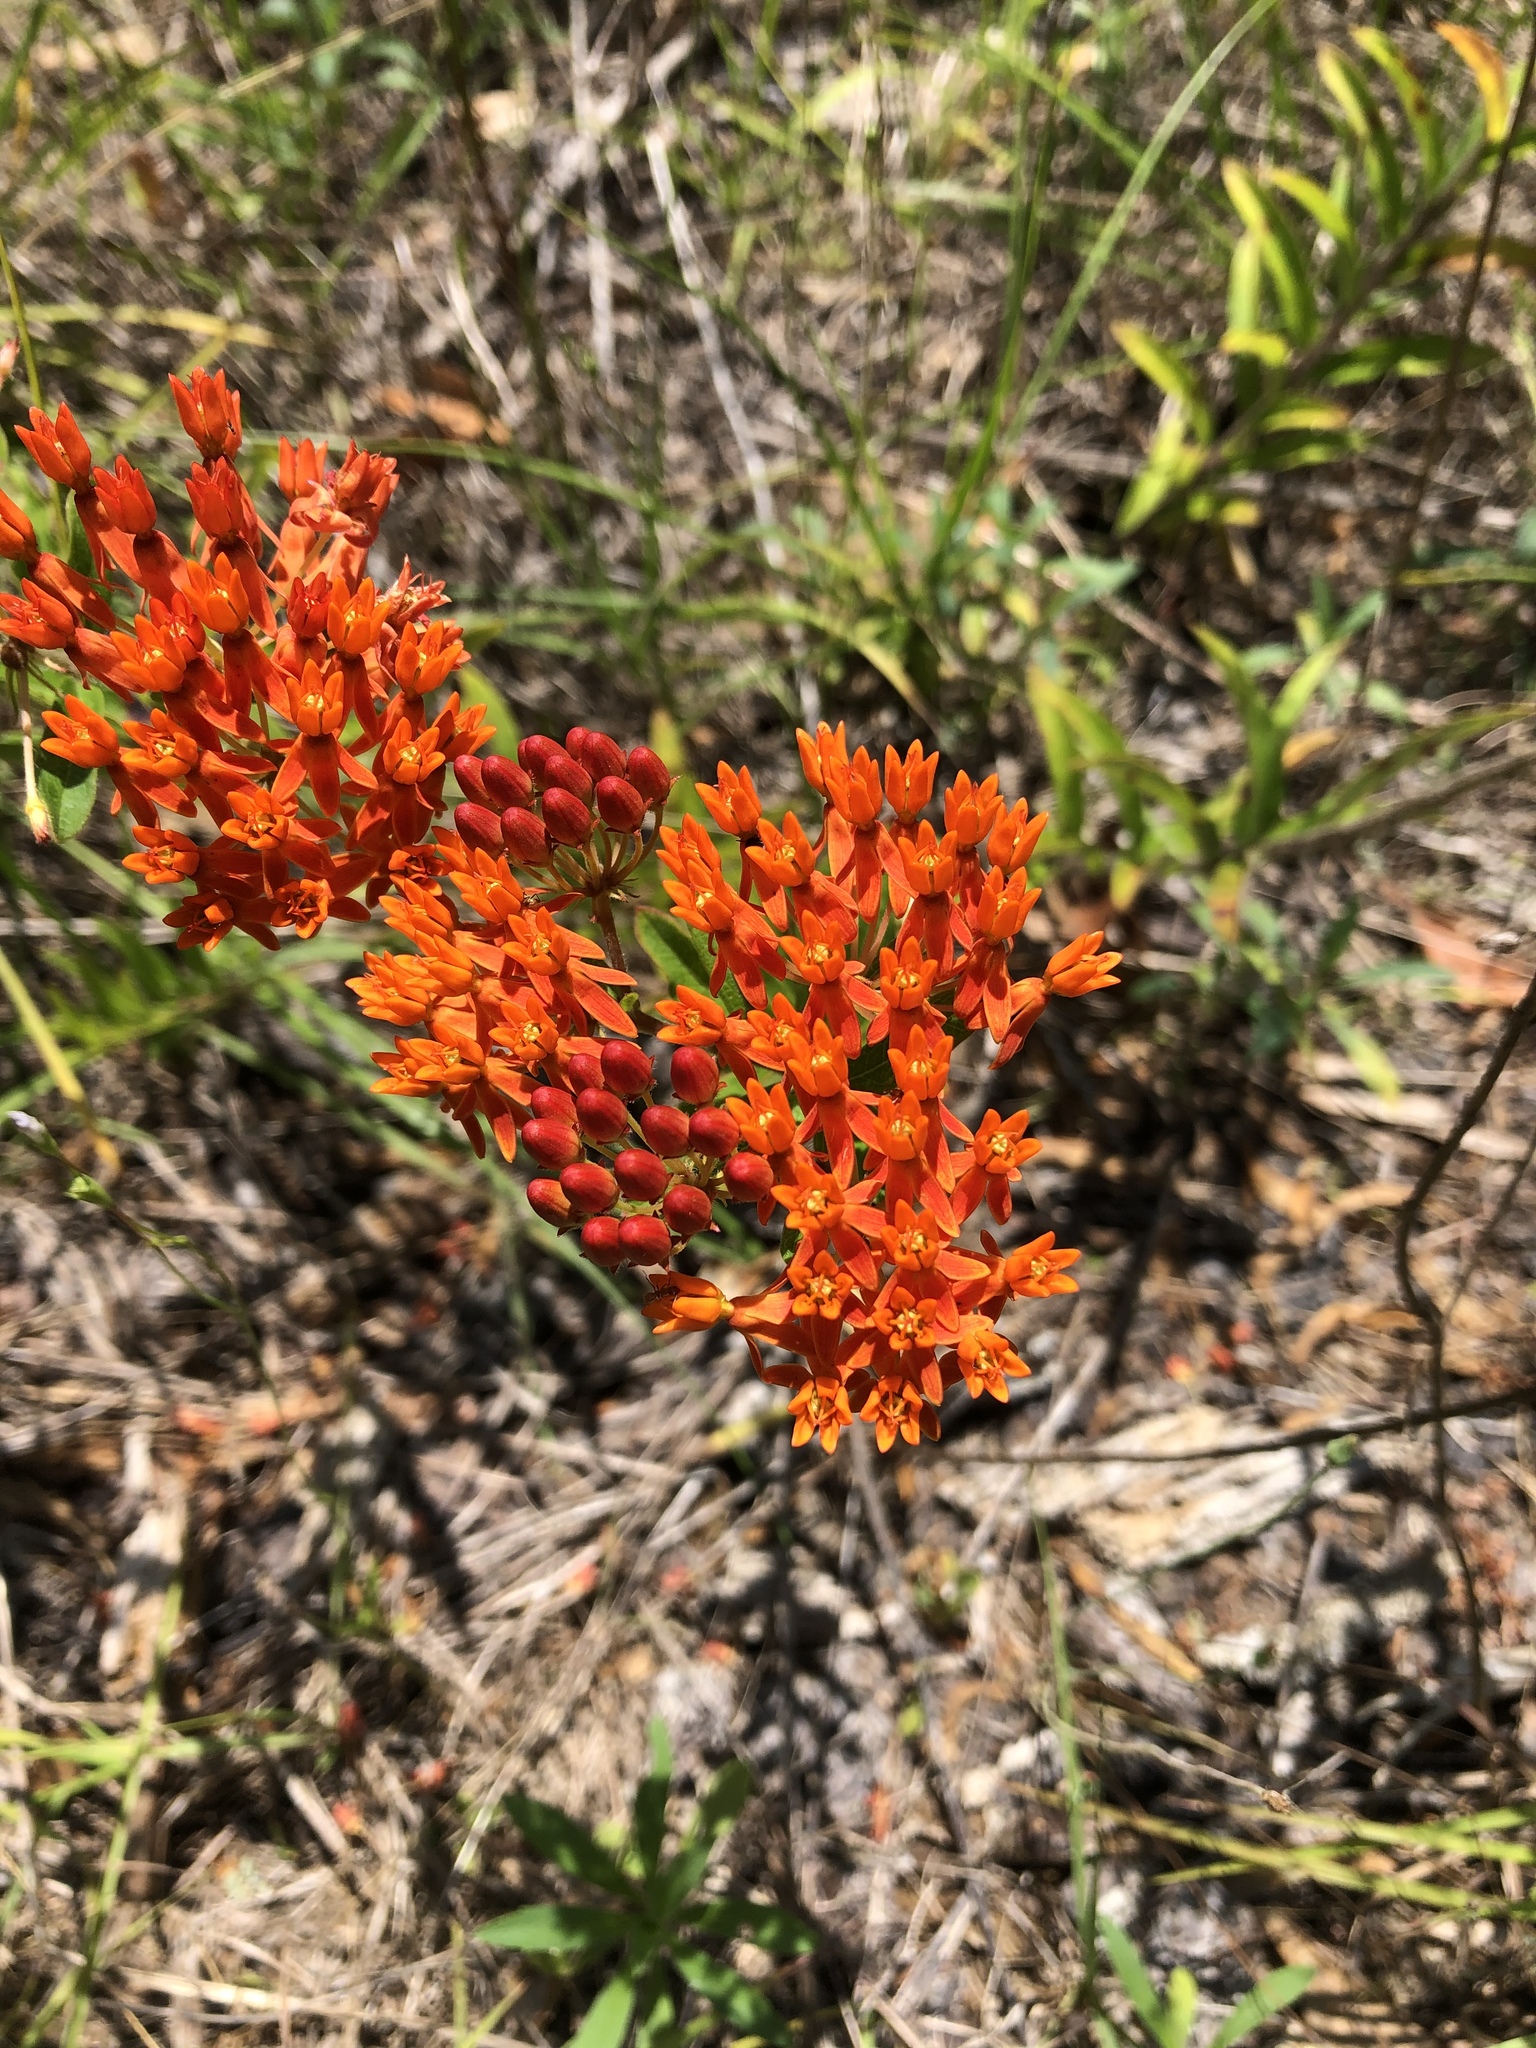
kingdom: Plantae
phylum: Tracheophyta
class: Magnoliopsida
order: Gentianales
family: Apocynaceae
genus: Asclepias
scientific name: Asclepias tuberosa
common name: Butterfly milkweed
